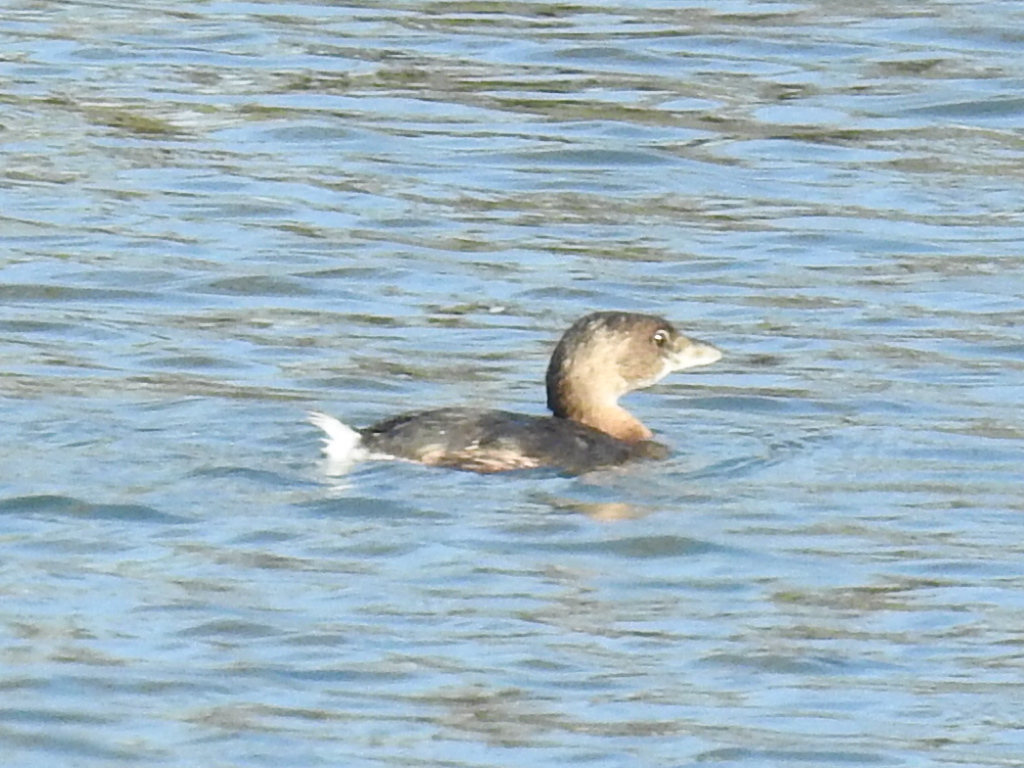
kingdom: Animalia
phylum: Chordata
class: Aves
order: Podicipediformes
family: Podicipedidae
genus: Podilymbus
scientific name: Podilymbus podiceps
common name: Pied-billed grebe
